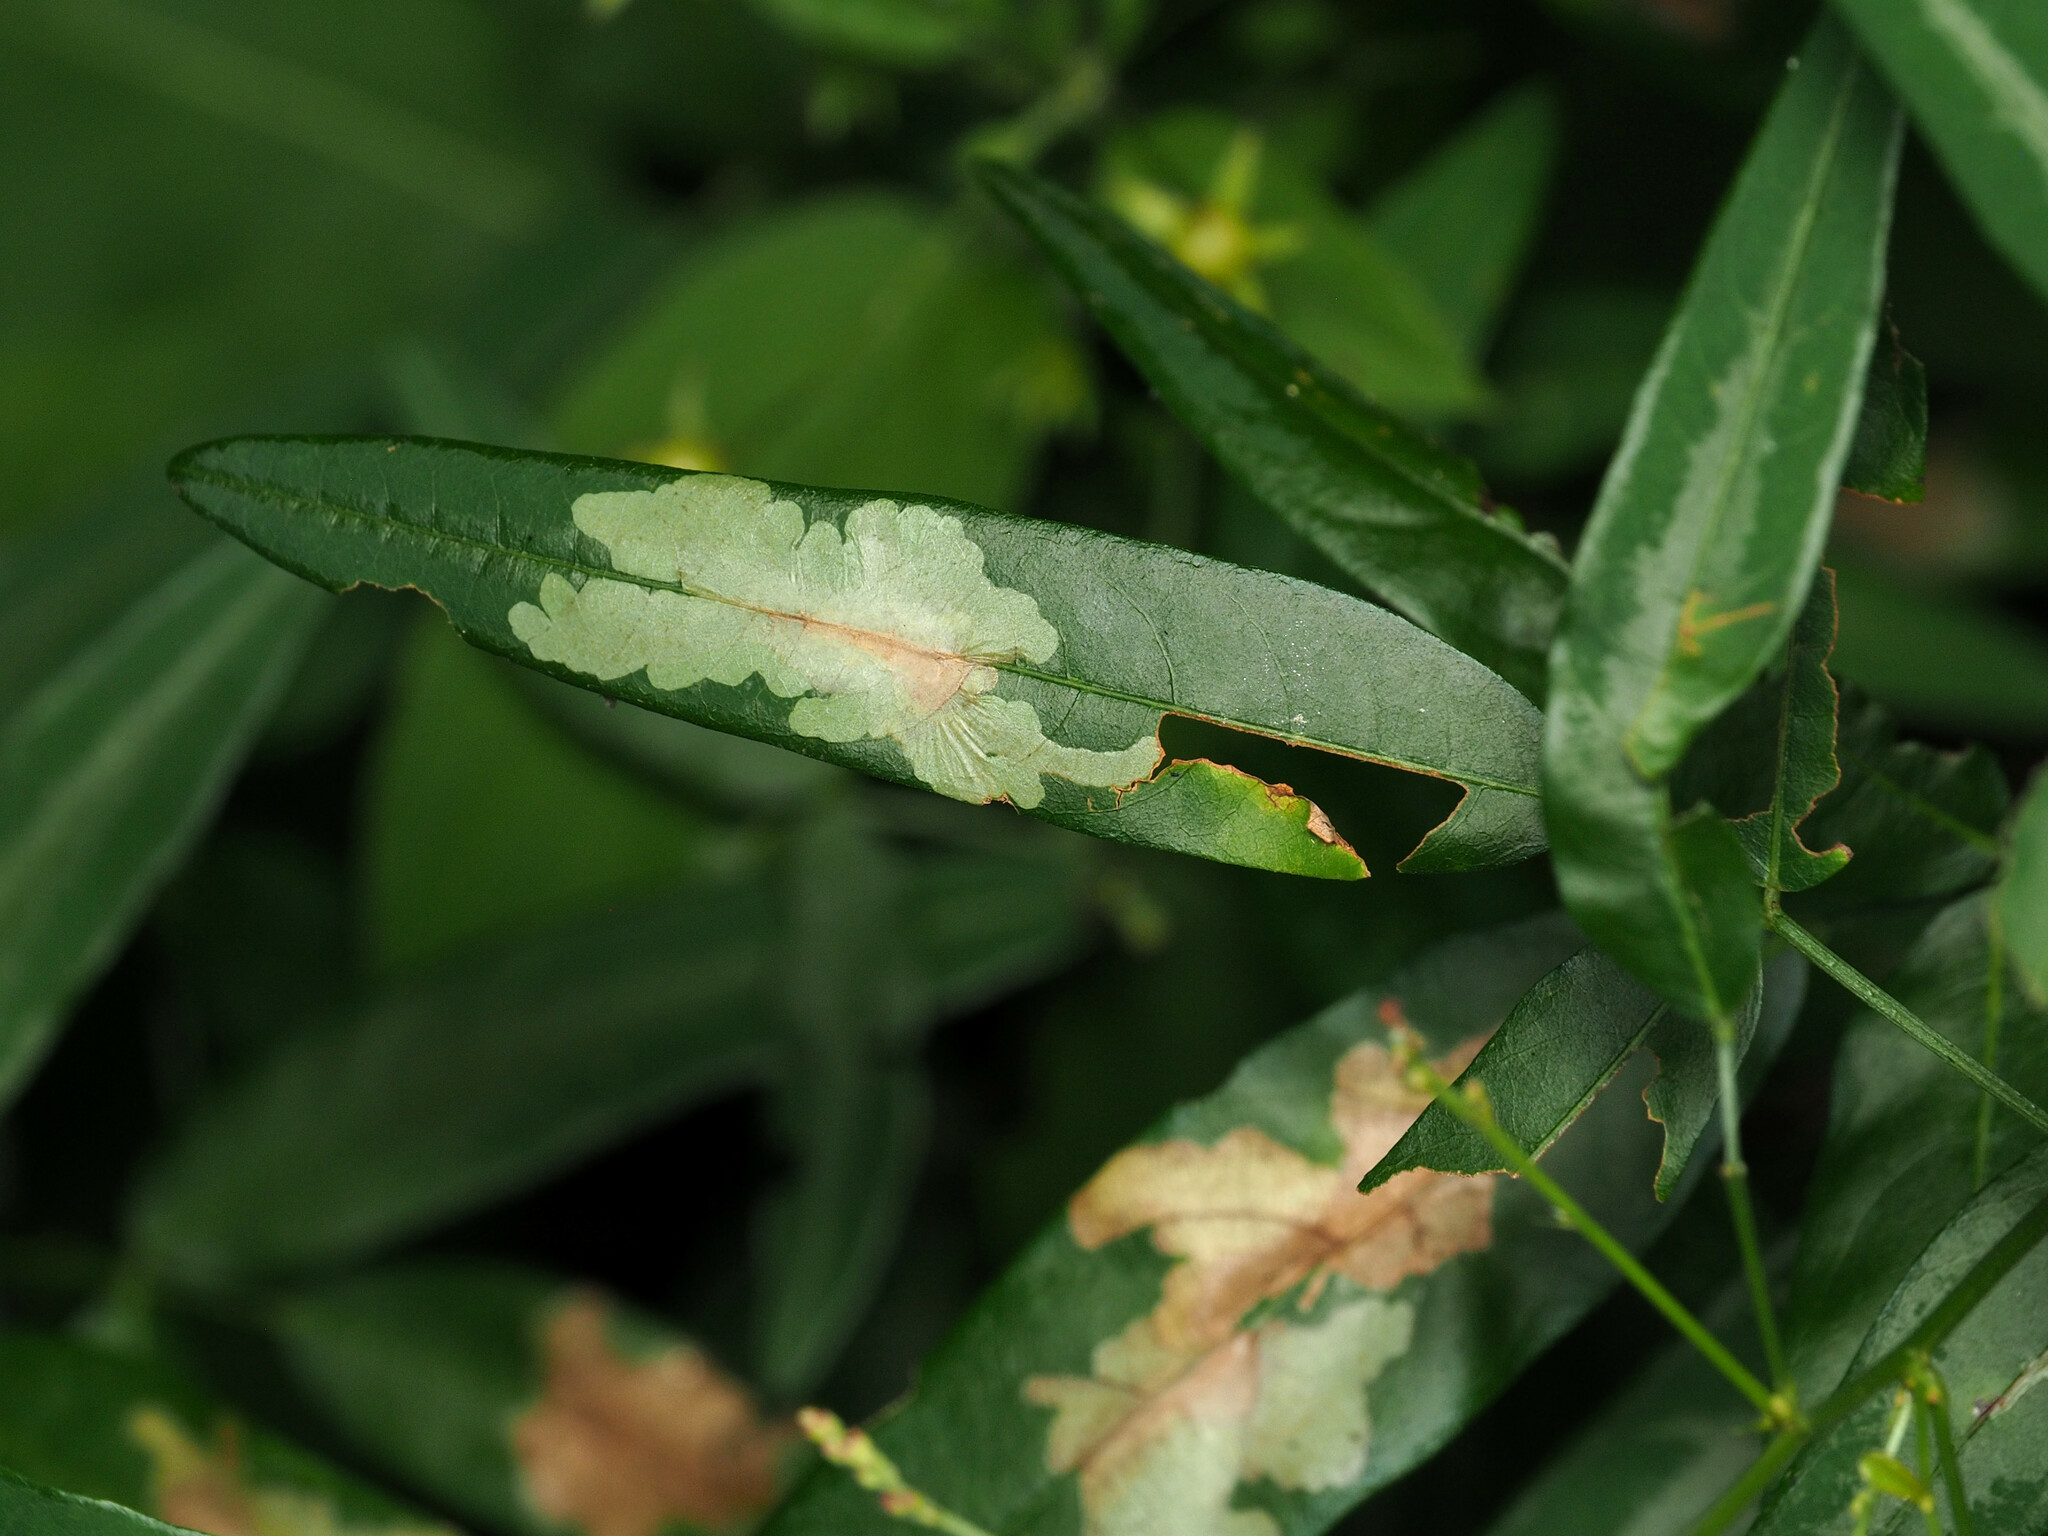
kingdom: Animalia
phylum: Arthropoda
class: Insecta
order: Lepidoptera
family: Gracillariidae
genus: Parectopa
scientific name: Parectopa robiniella
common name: Locust digitate leafminer
